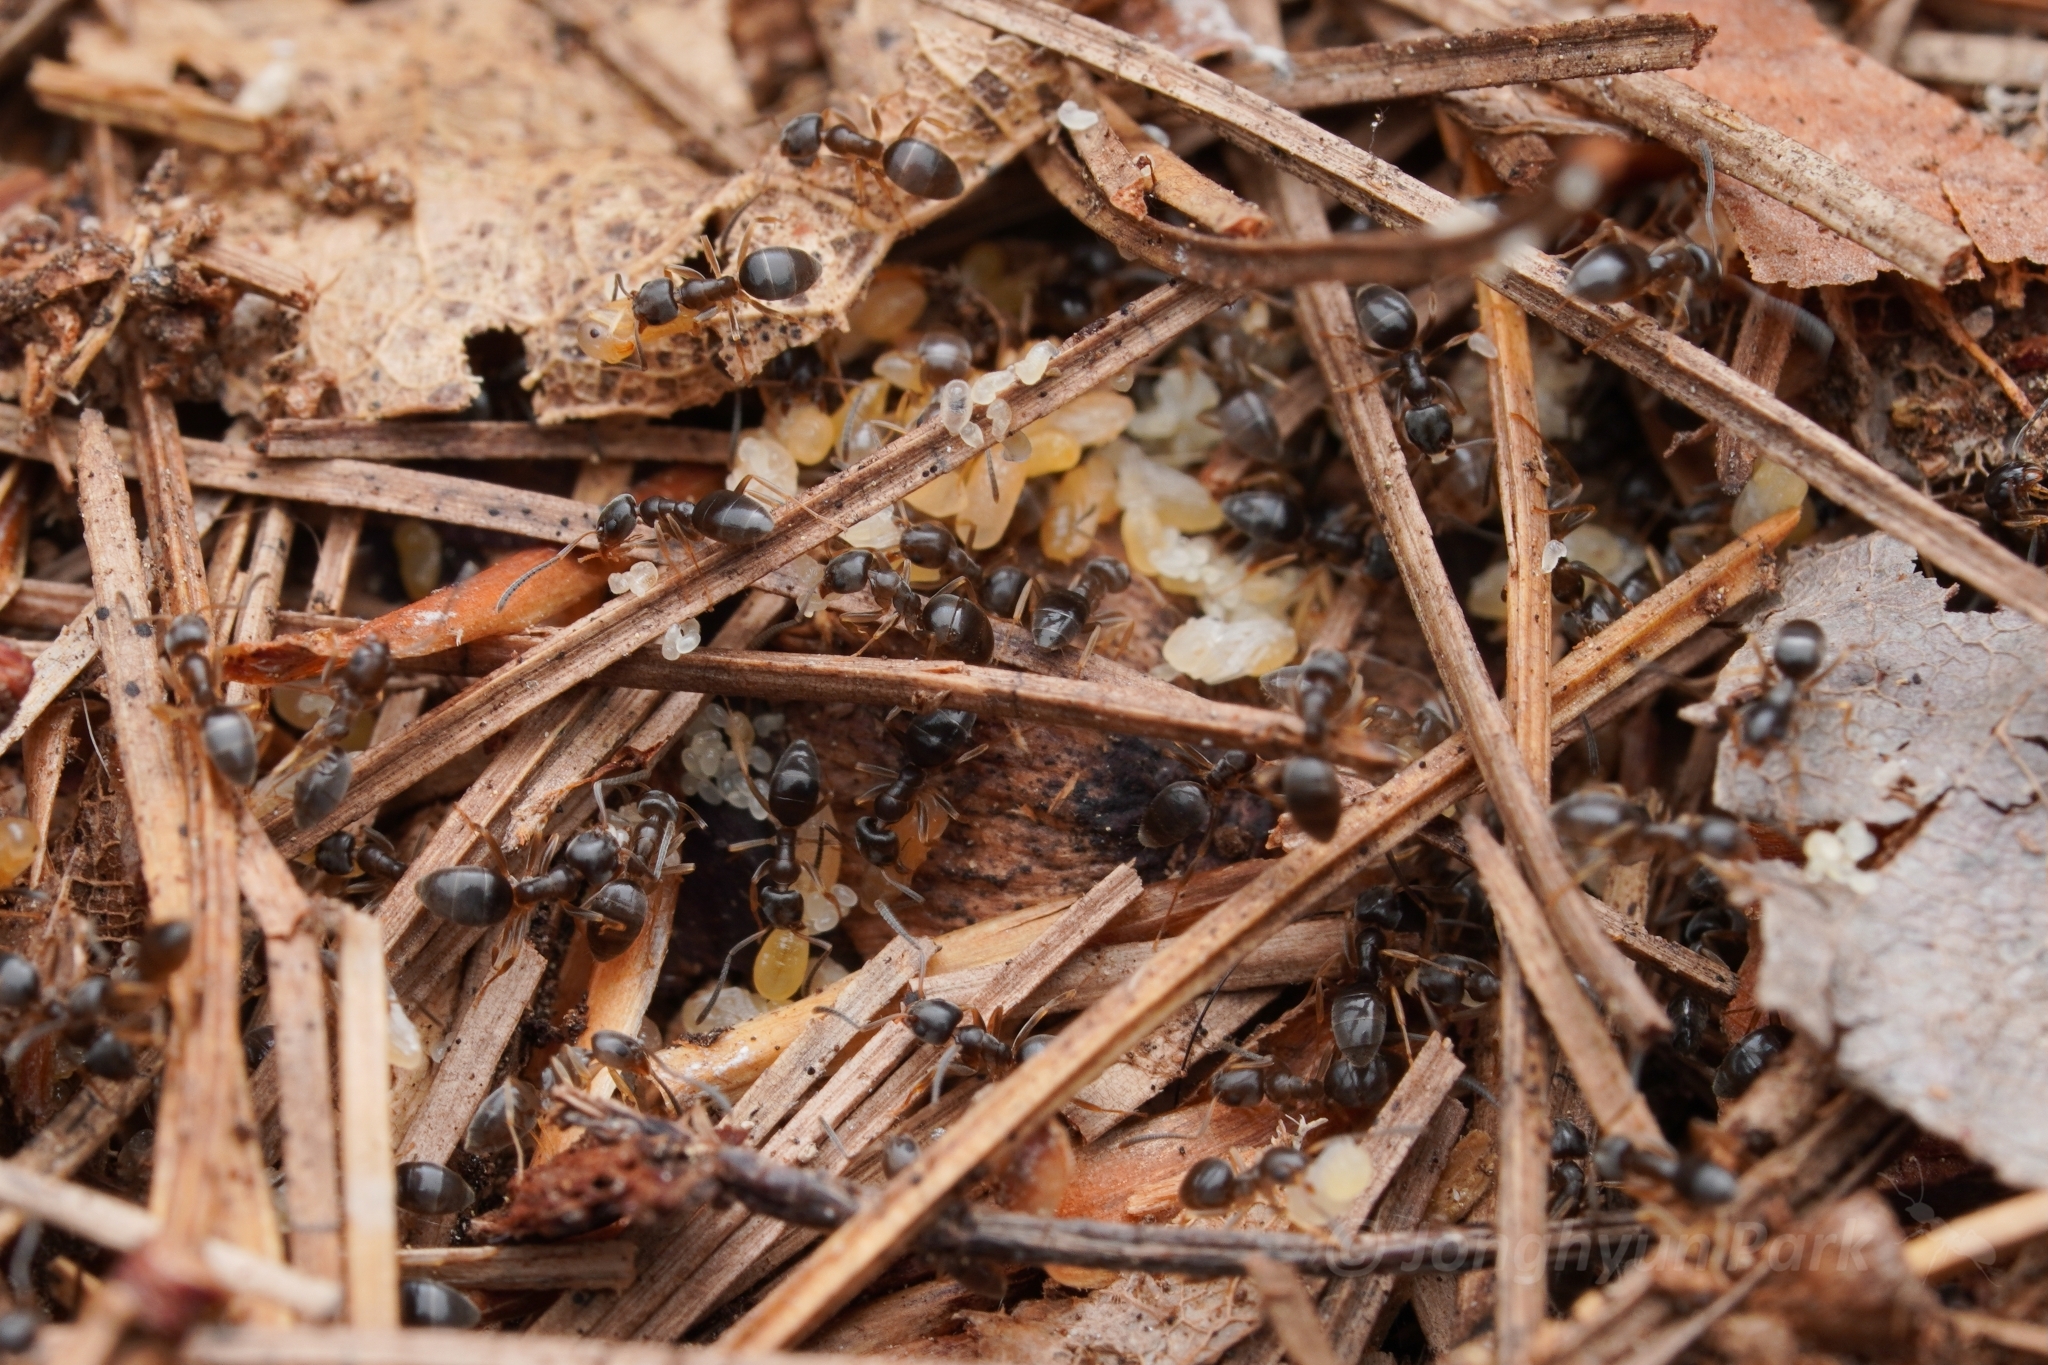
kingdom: Animalia
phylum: Arthropoda
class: Insecta
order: Hymenoptera
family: Formicidae
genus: Tapinoma
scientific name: Tapinoma sessile
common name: Odorous house ant
